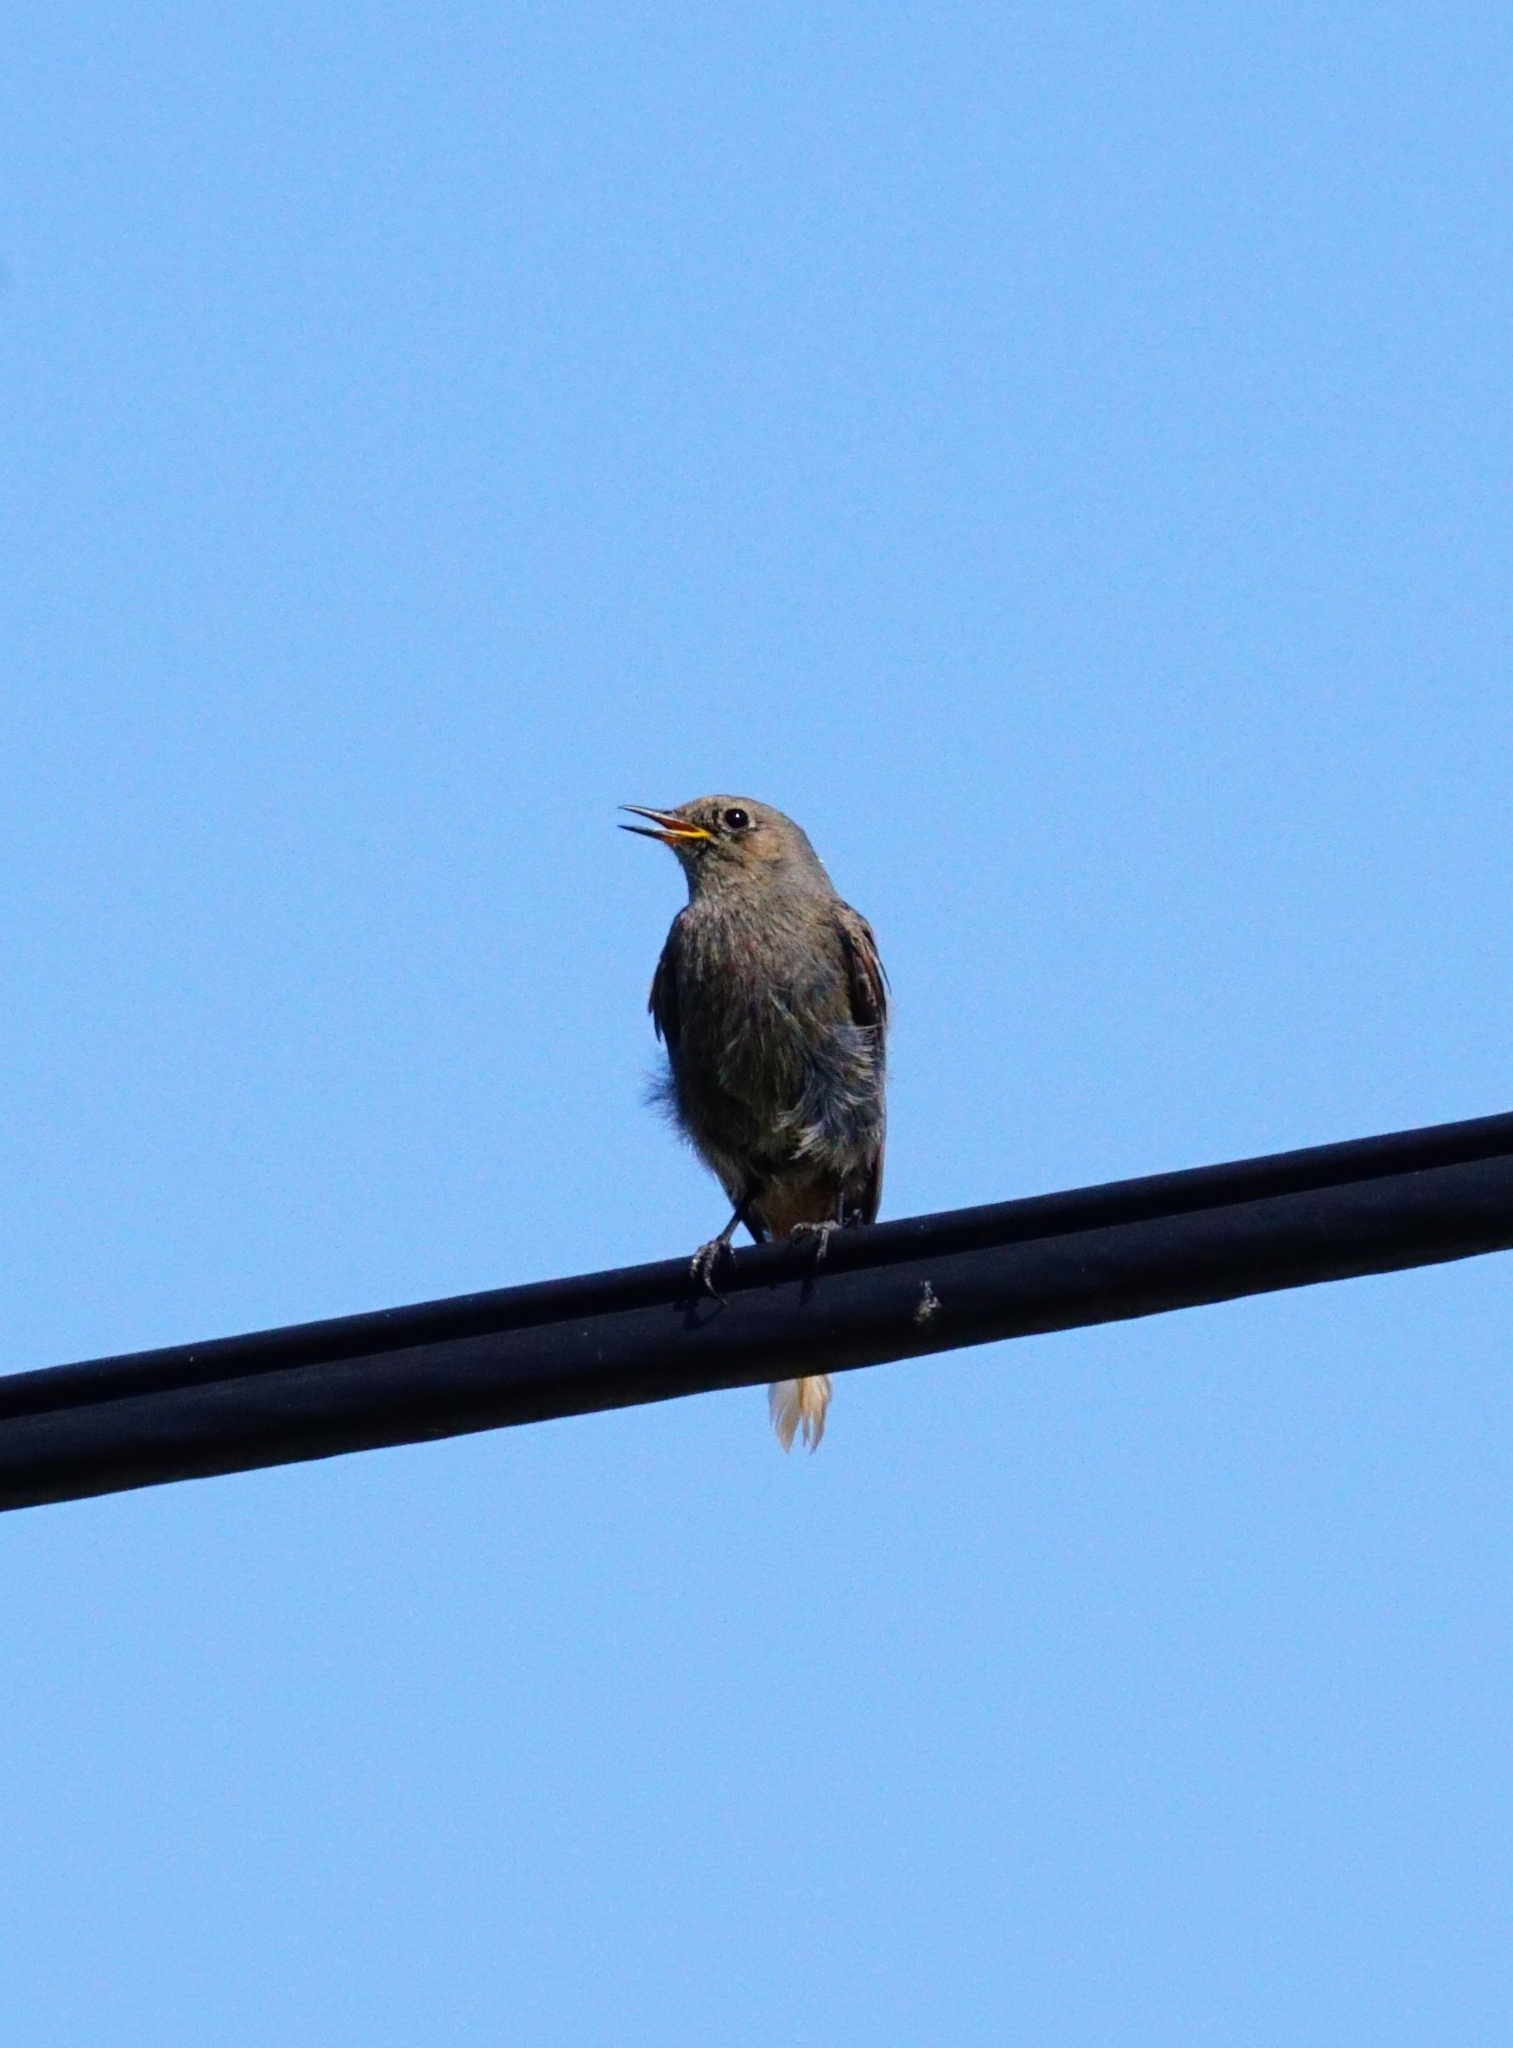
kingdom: Animalia
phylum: Chordata
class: Aves
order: Passeriformes
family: Muscicapidae
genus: Phoenicurus
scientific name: Phoenicurus ochruros
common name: Black redstart
